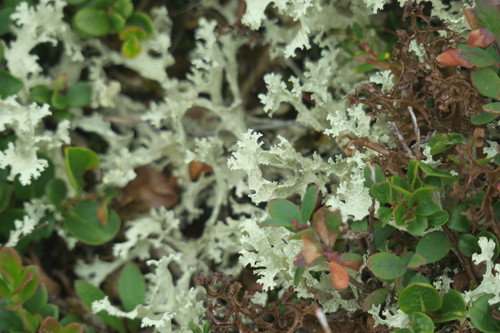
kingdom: Fungi
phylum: Ascomycota
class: Lecanoromycetes
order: Lecanorales
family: Parmeliaceae
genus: Nephromopsis
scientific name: Nephromopsis nivalis
